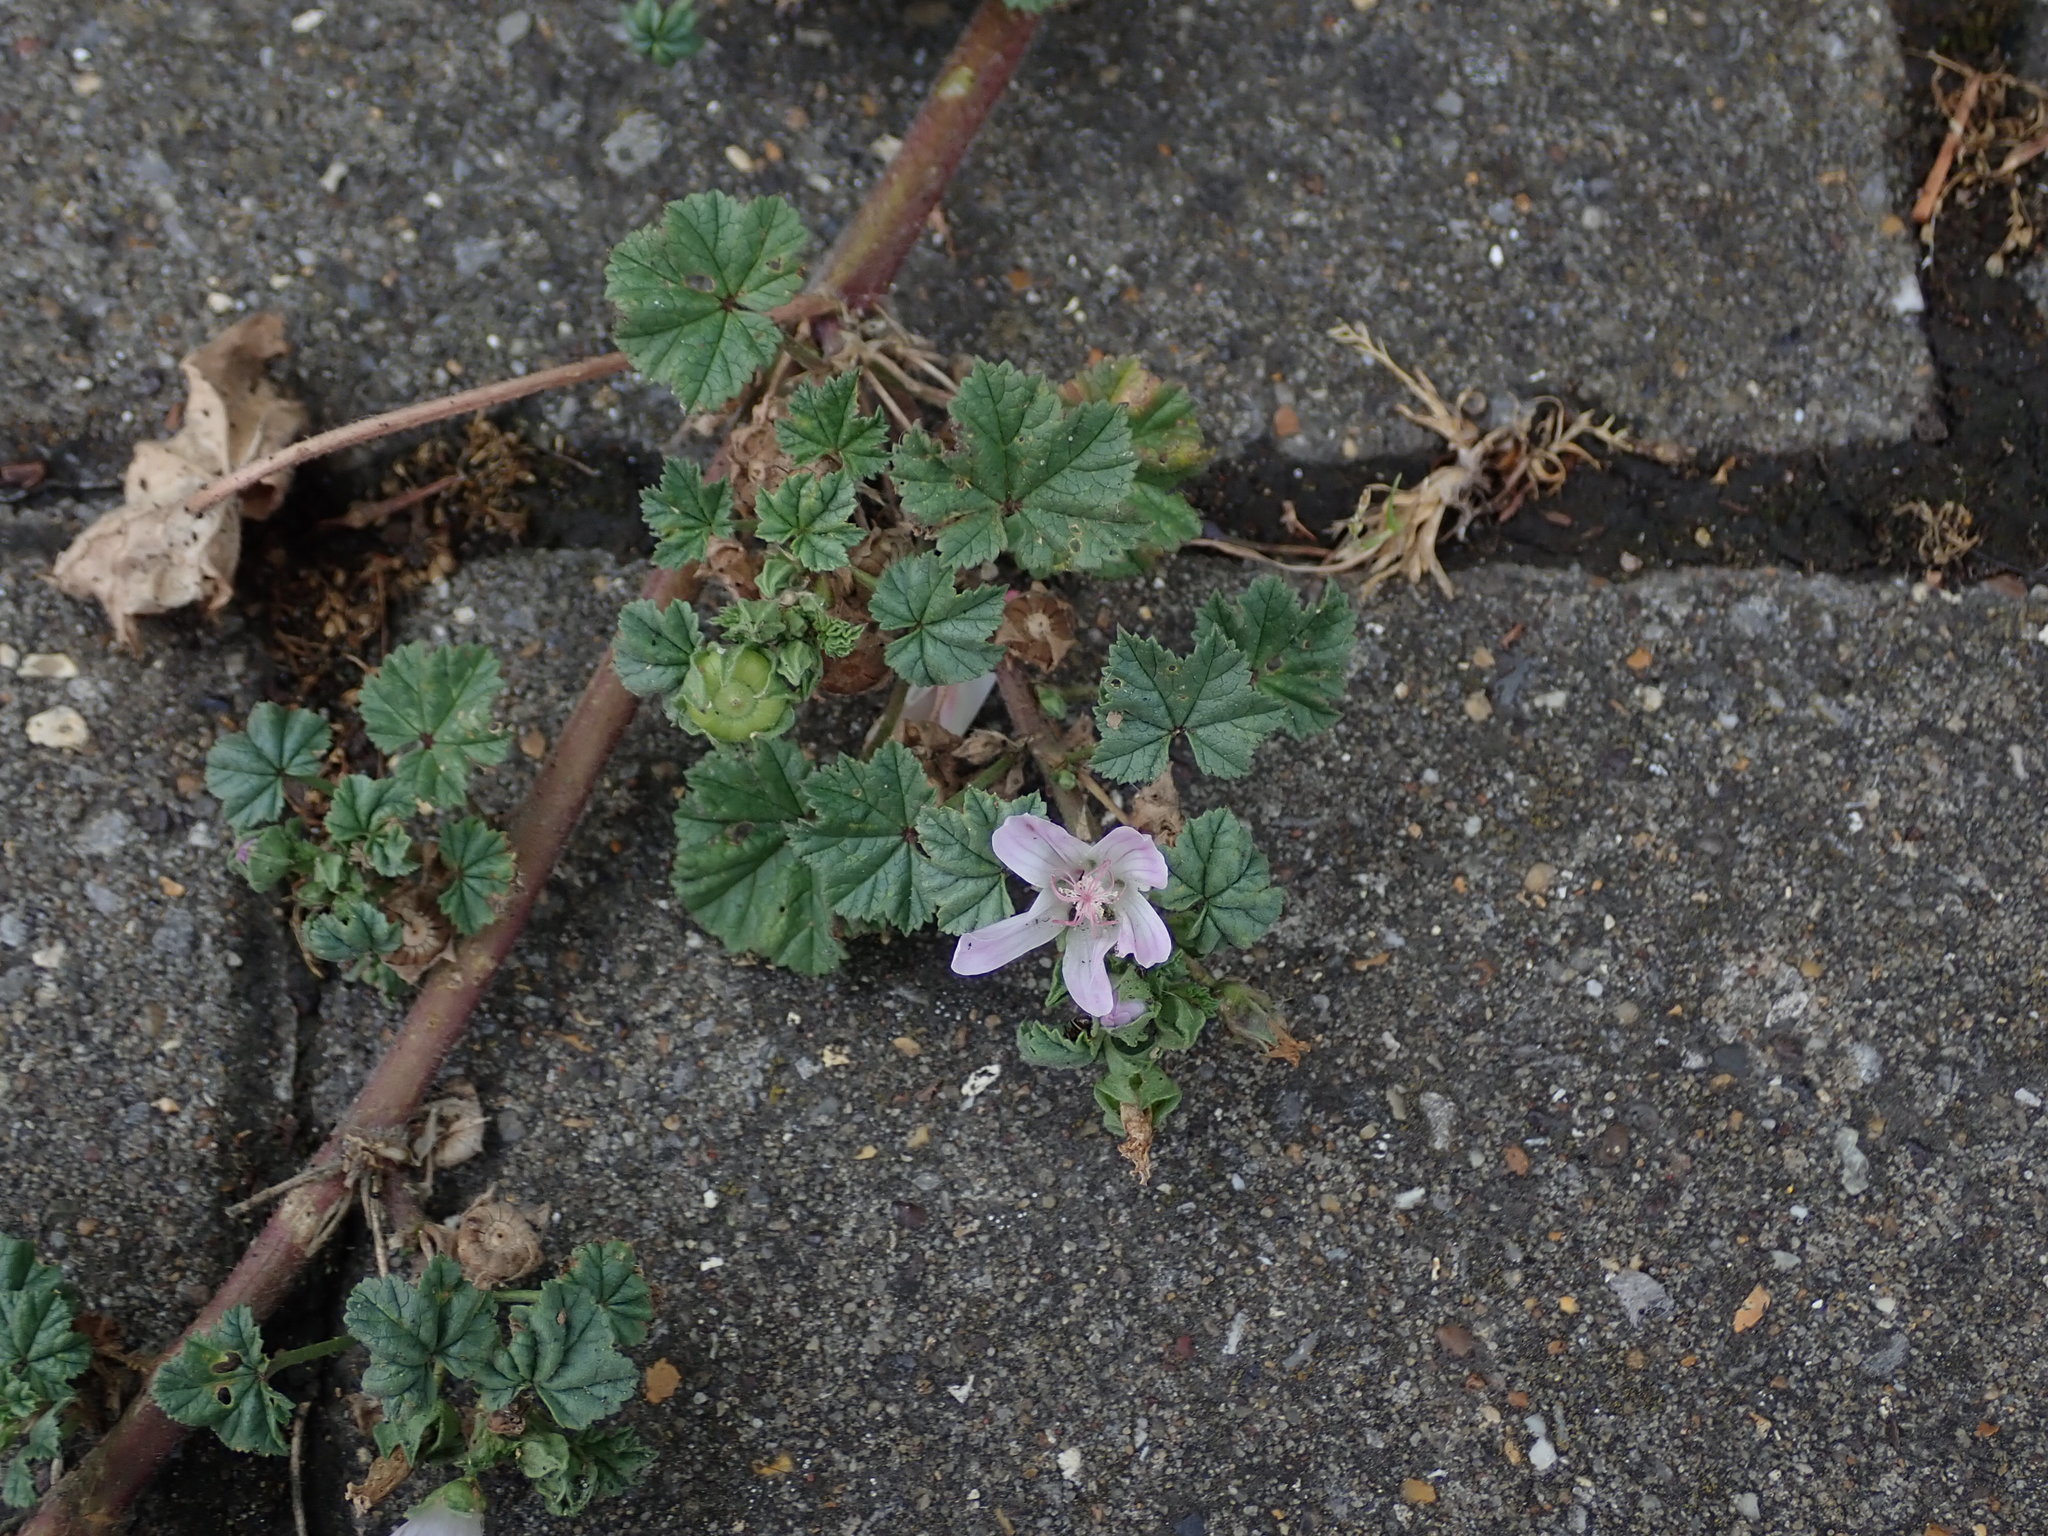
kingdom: Plantae
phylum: Tracheophyta
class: Magnoliopsida
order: Malvales
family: Malvaceae
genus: Malva
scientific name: Malva neglecta
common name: Common mallow
